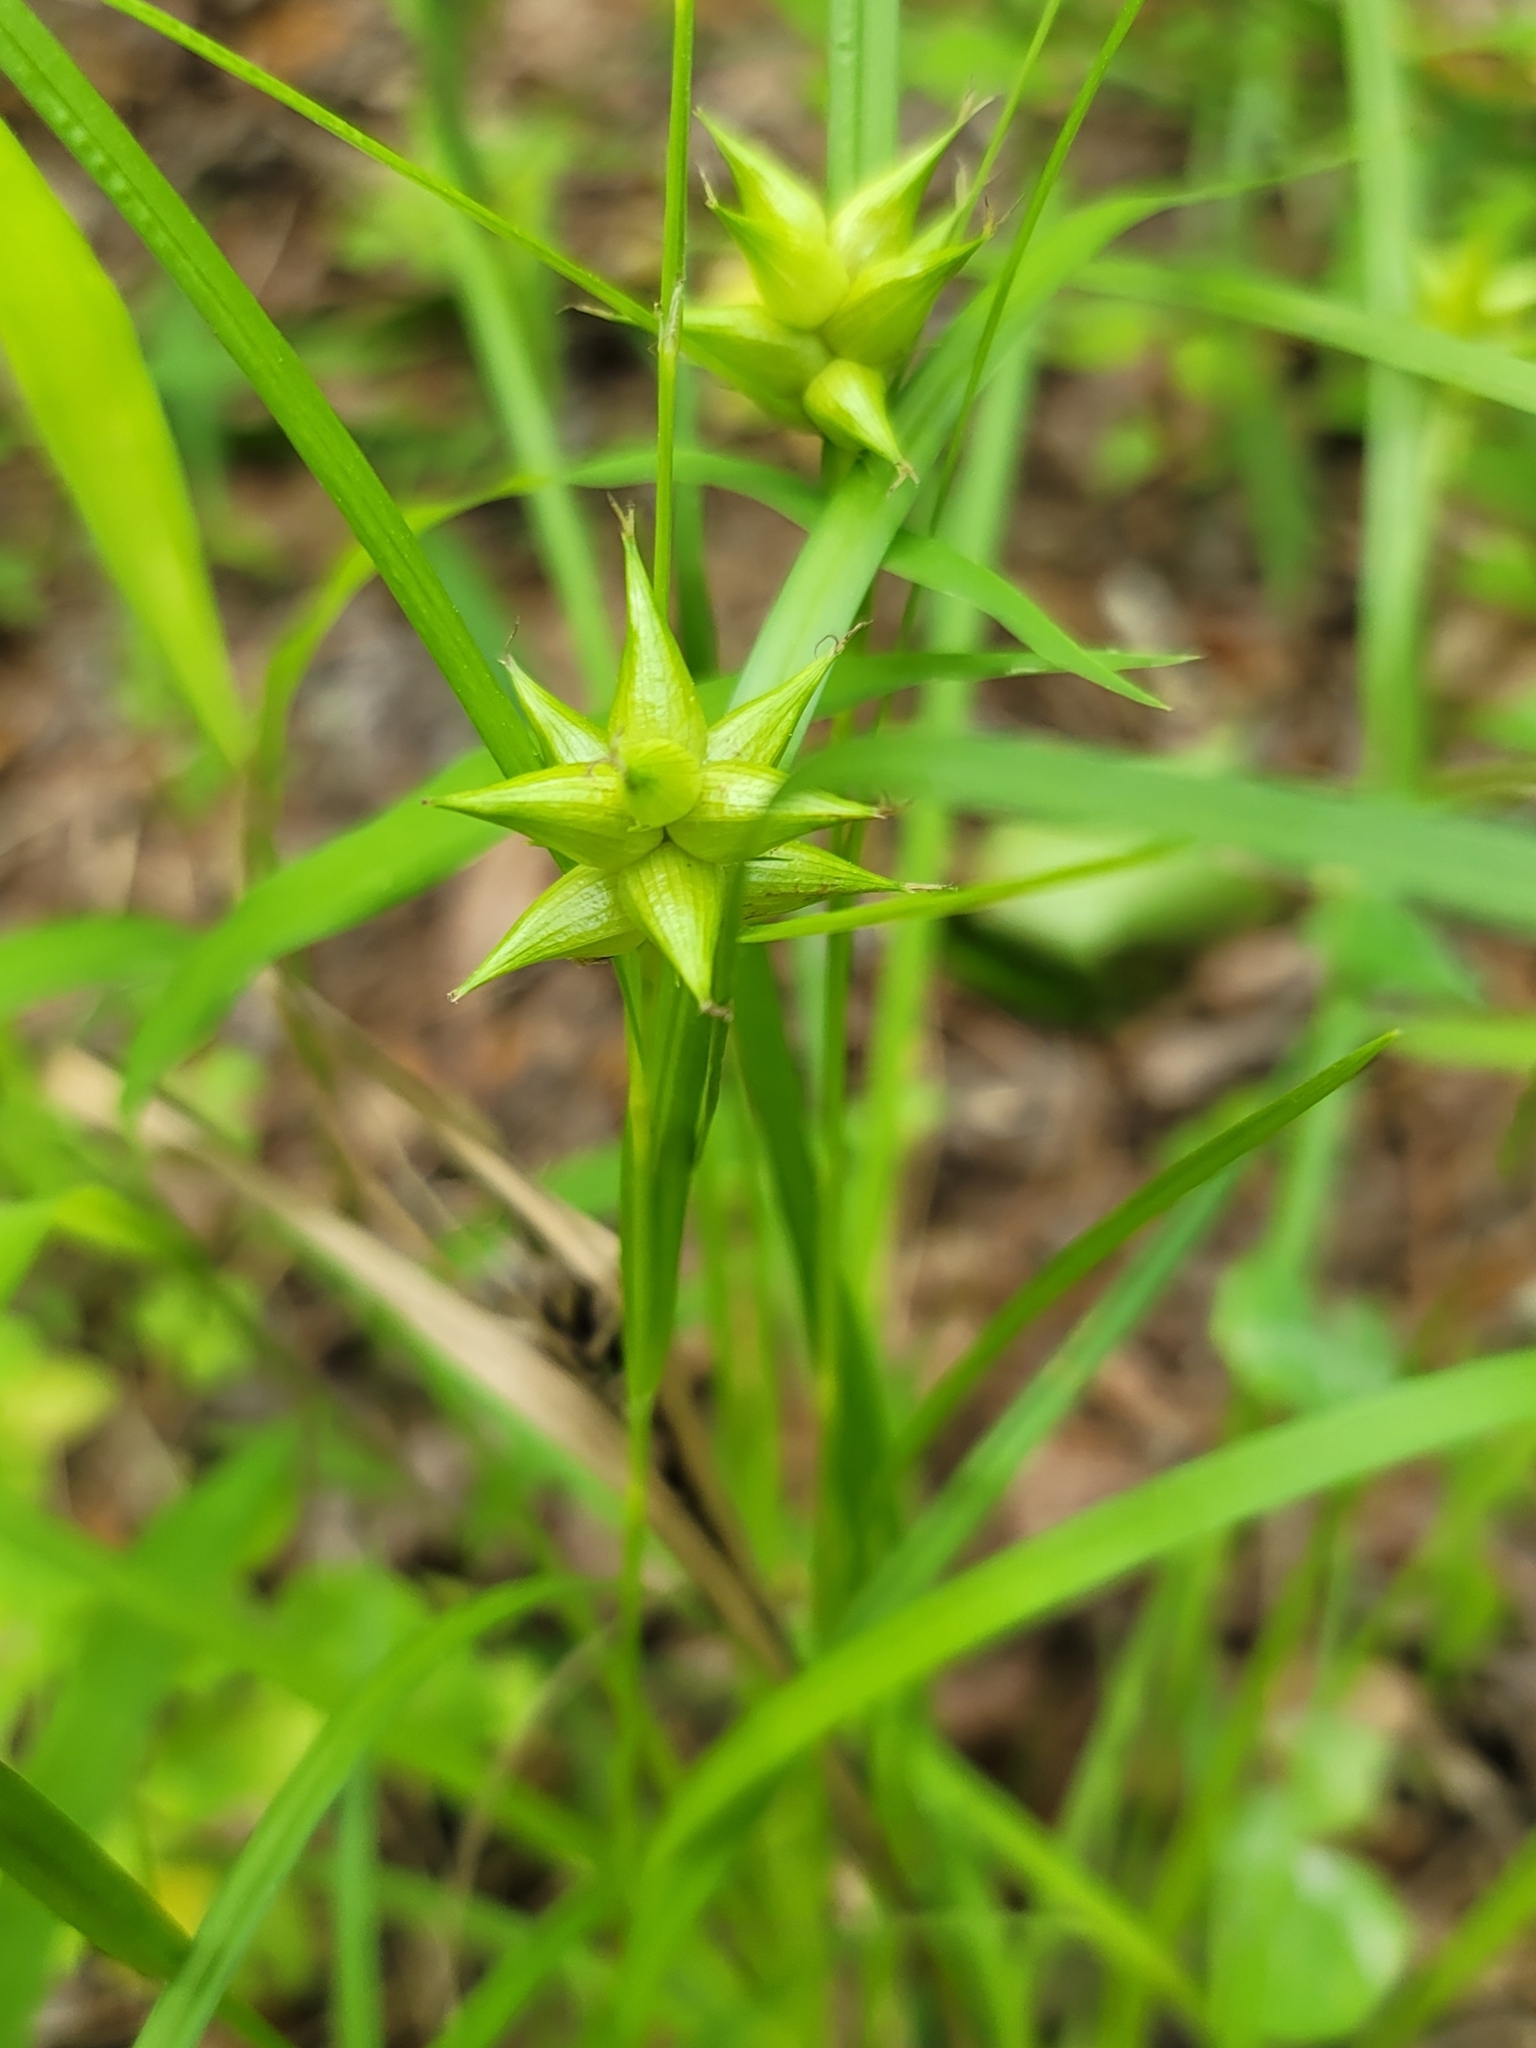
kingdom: Plantae
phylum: Tracheophyta
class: Liliopsida
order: Poales
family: Cyperaceae
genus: Carex
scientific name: Carex intumescens
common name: Greater bladder sedge
